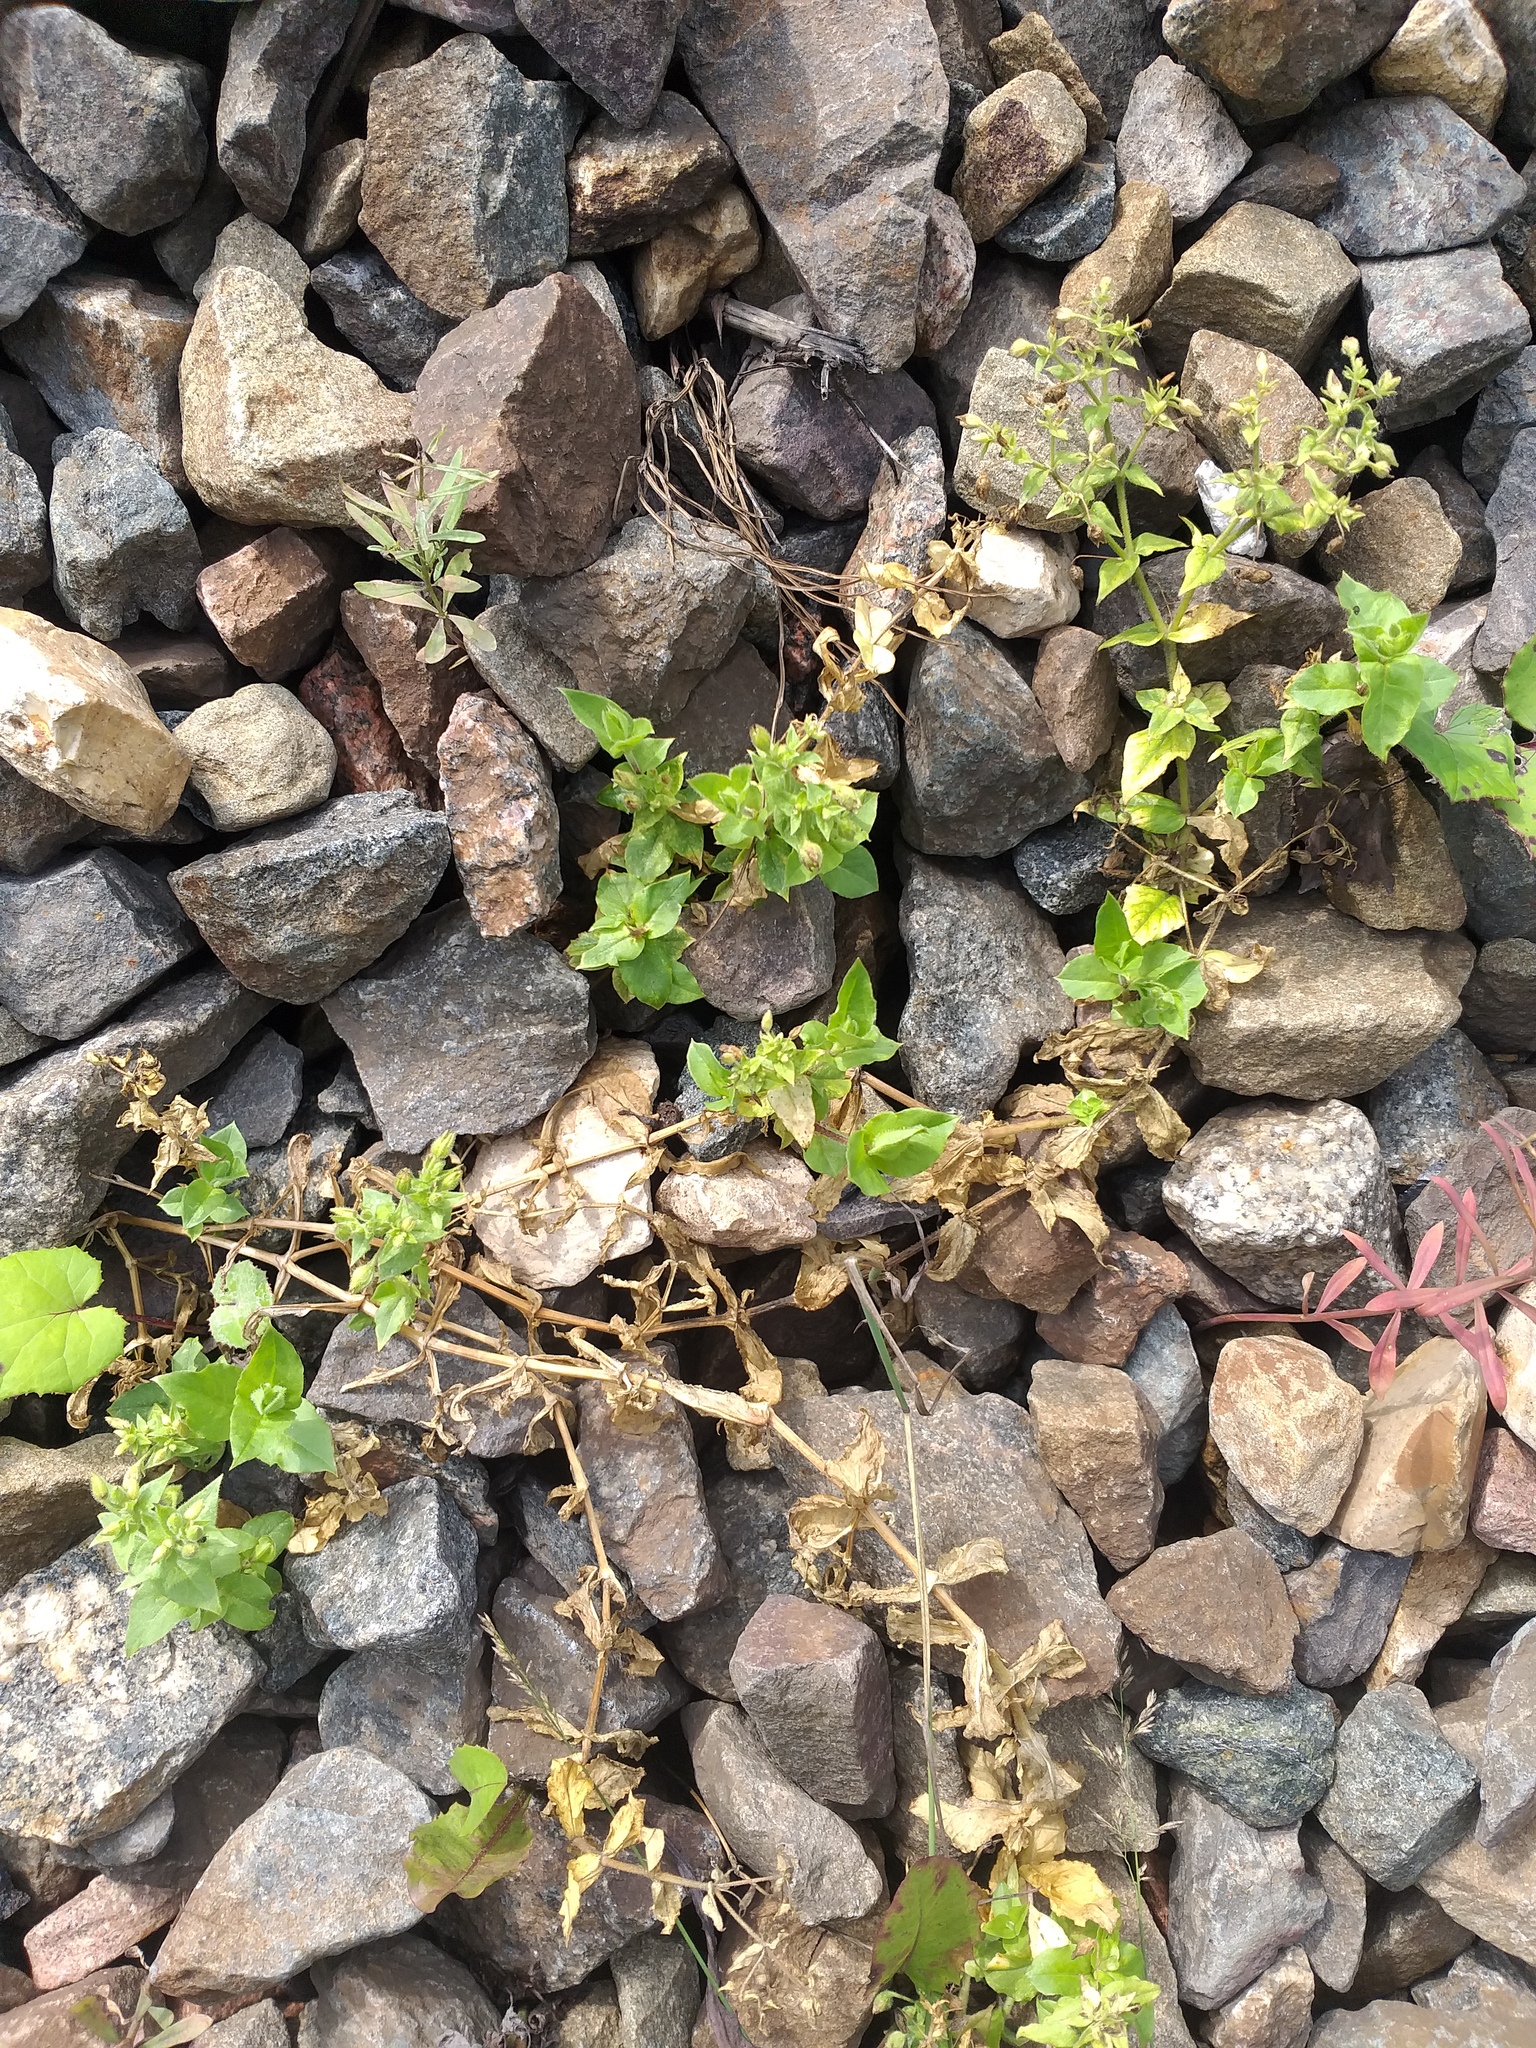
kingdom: Plantae
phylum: Tracheophyta
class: Magnoliopsida
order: Caryophyllales
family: Caryophyllaceae
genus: Stellaria
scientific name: Stellaria aquatica
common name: Water chickweed
